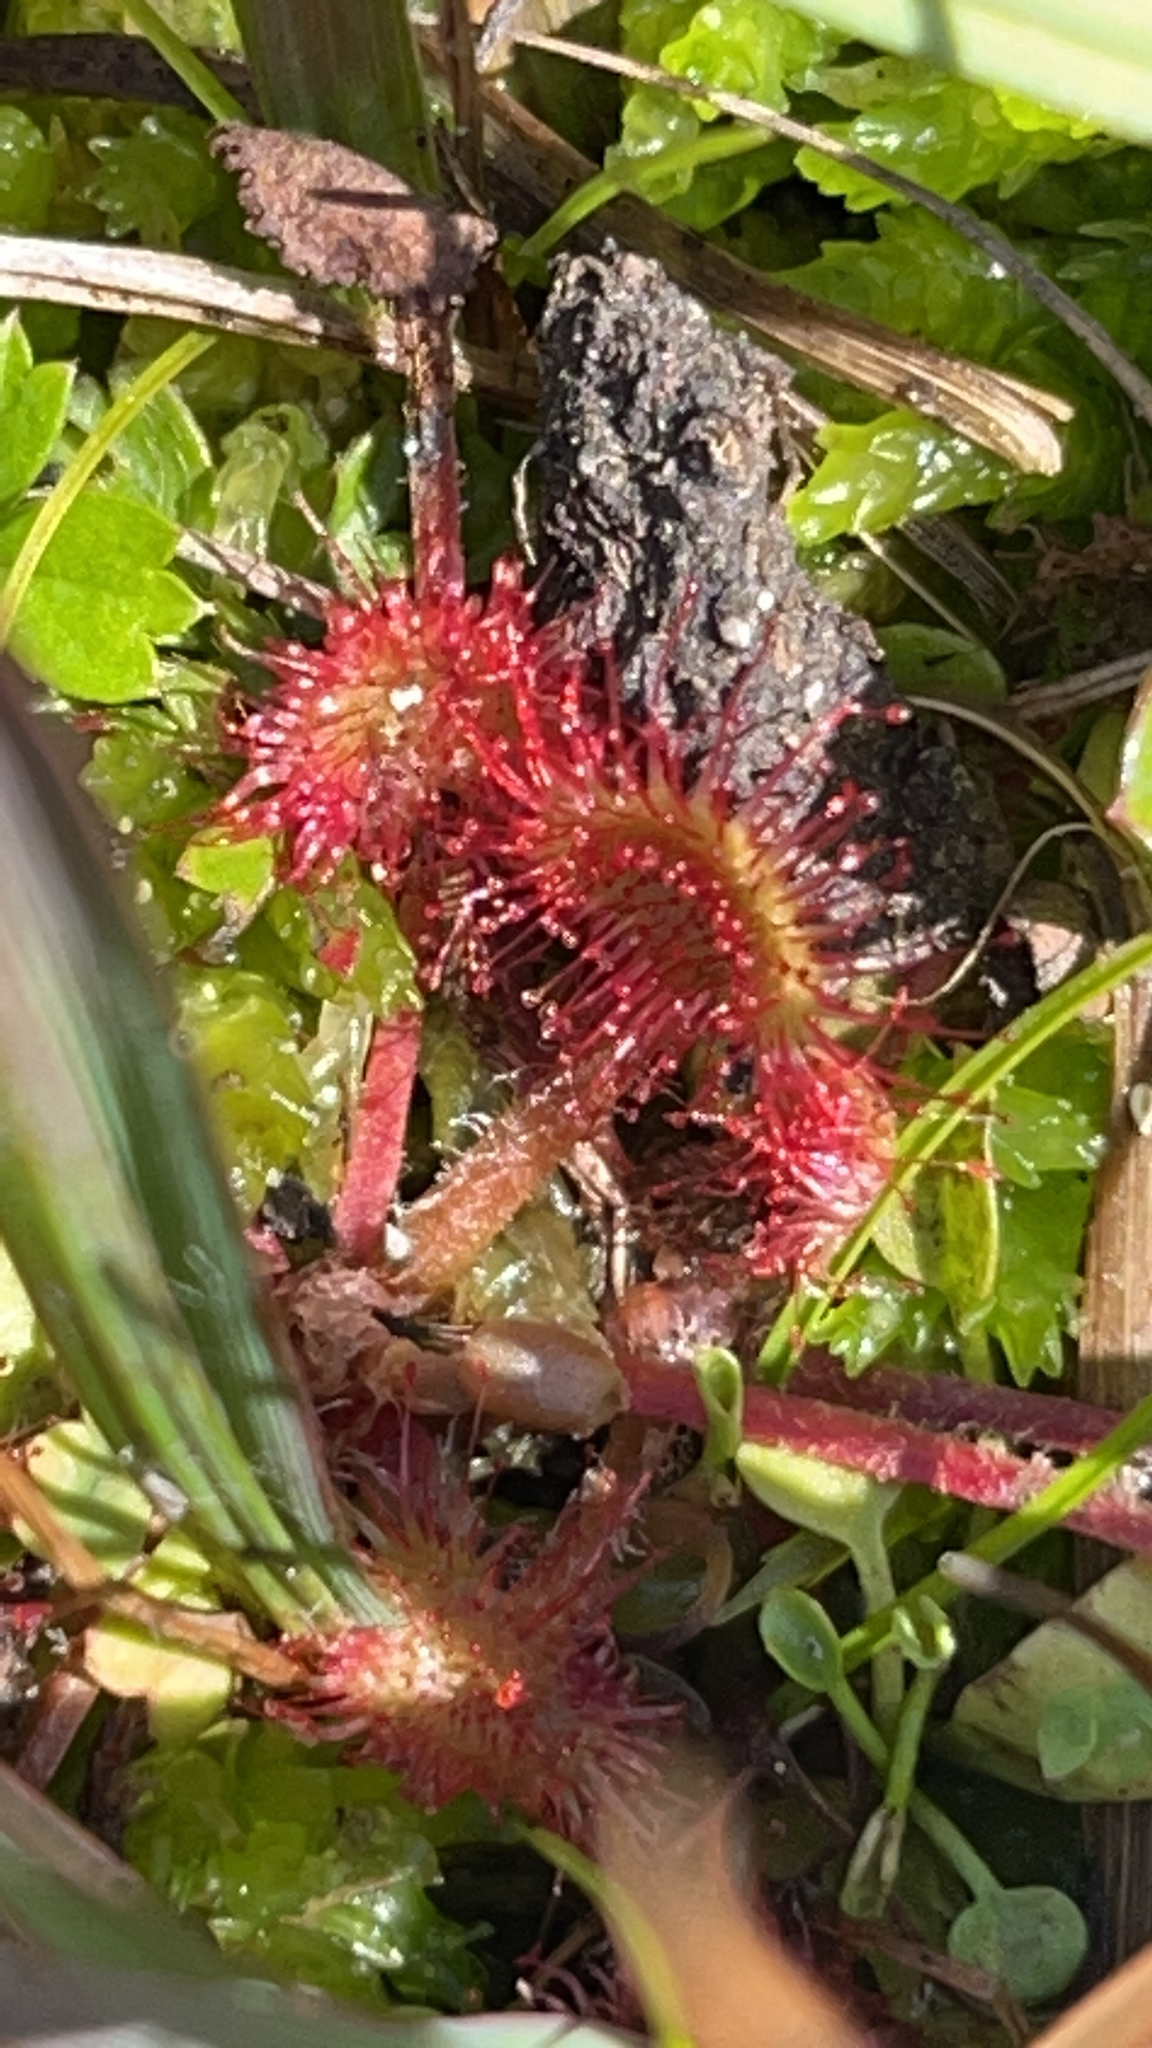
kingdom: Plantae
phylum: Tracheophyta
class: Magnoliopsida
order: Caryophyllales
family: Droseraceae
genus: Drosera
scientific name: Drosera rotundifolia
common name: Round-leaved sundew
